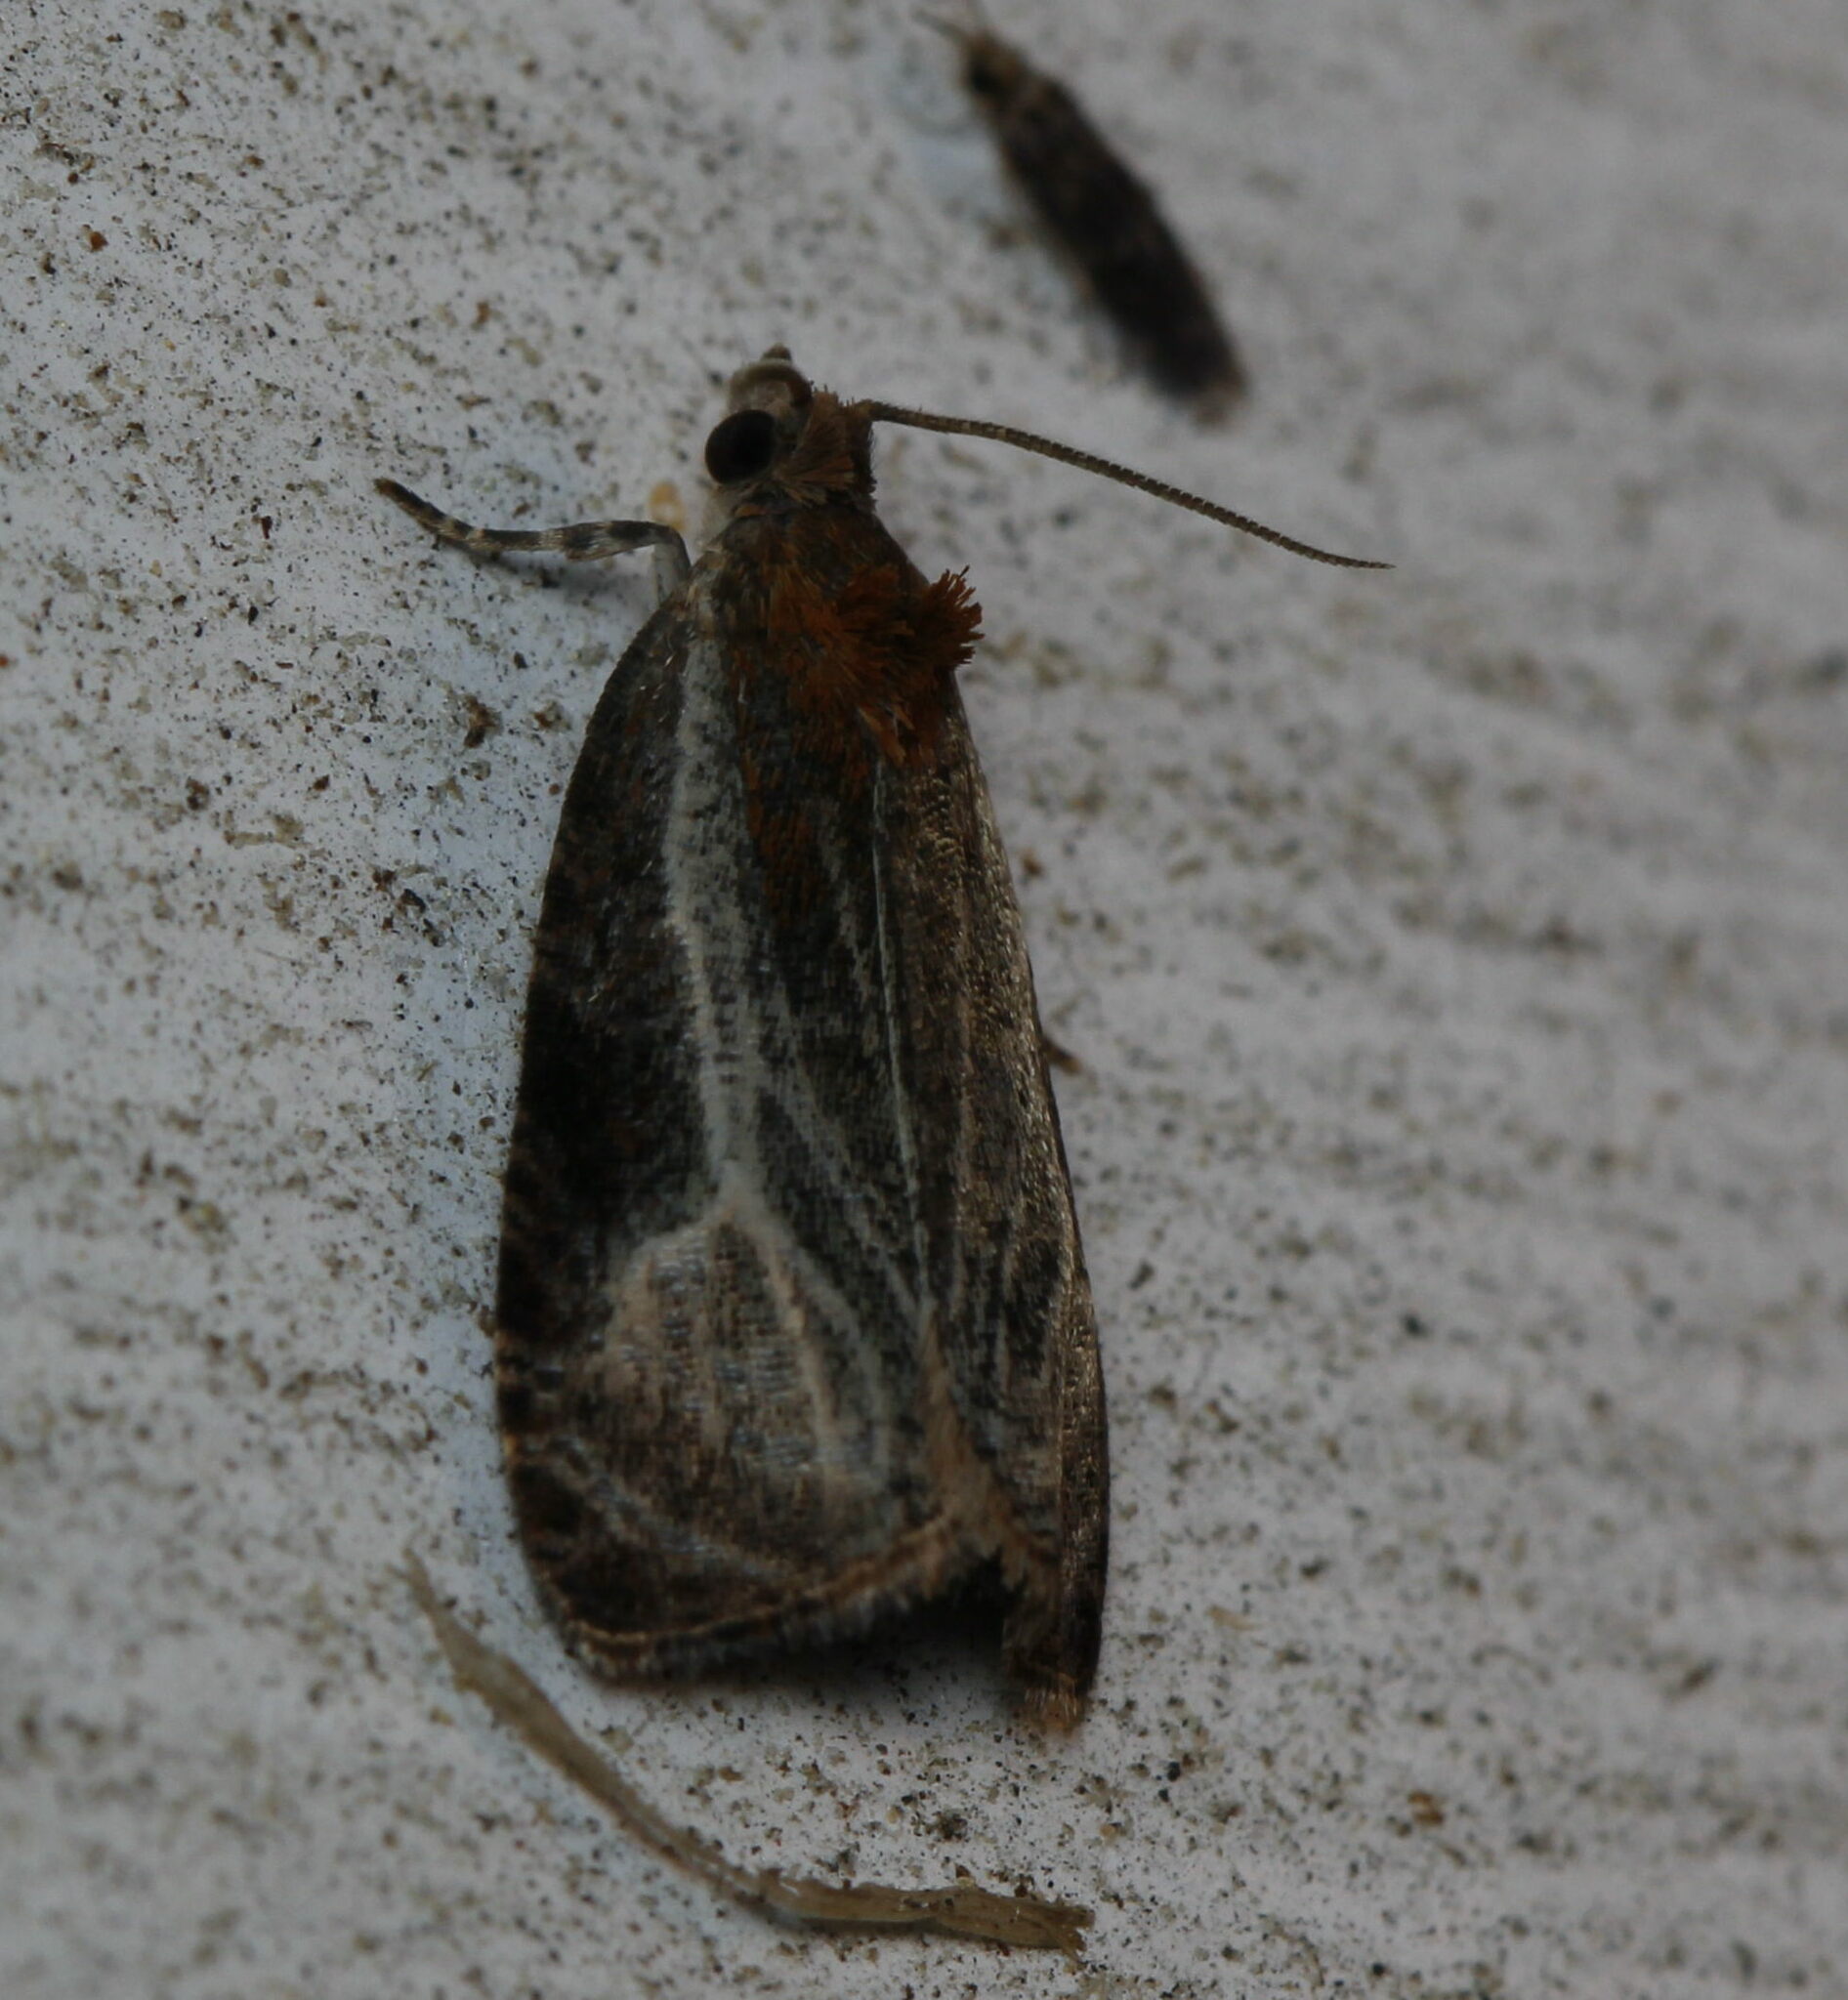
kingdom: Animalia
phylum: Arthropoda
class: Insecta
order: Lepidoptera
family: Tortricidae
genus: Olethreutes
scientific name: Olethreutes quadrifidum
